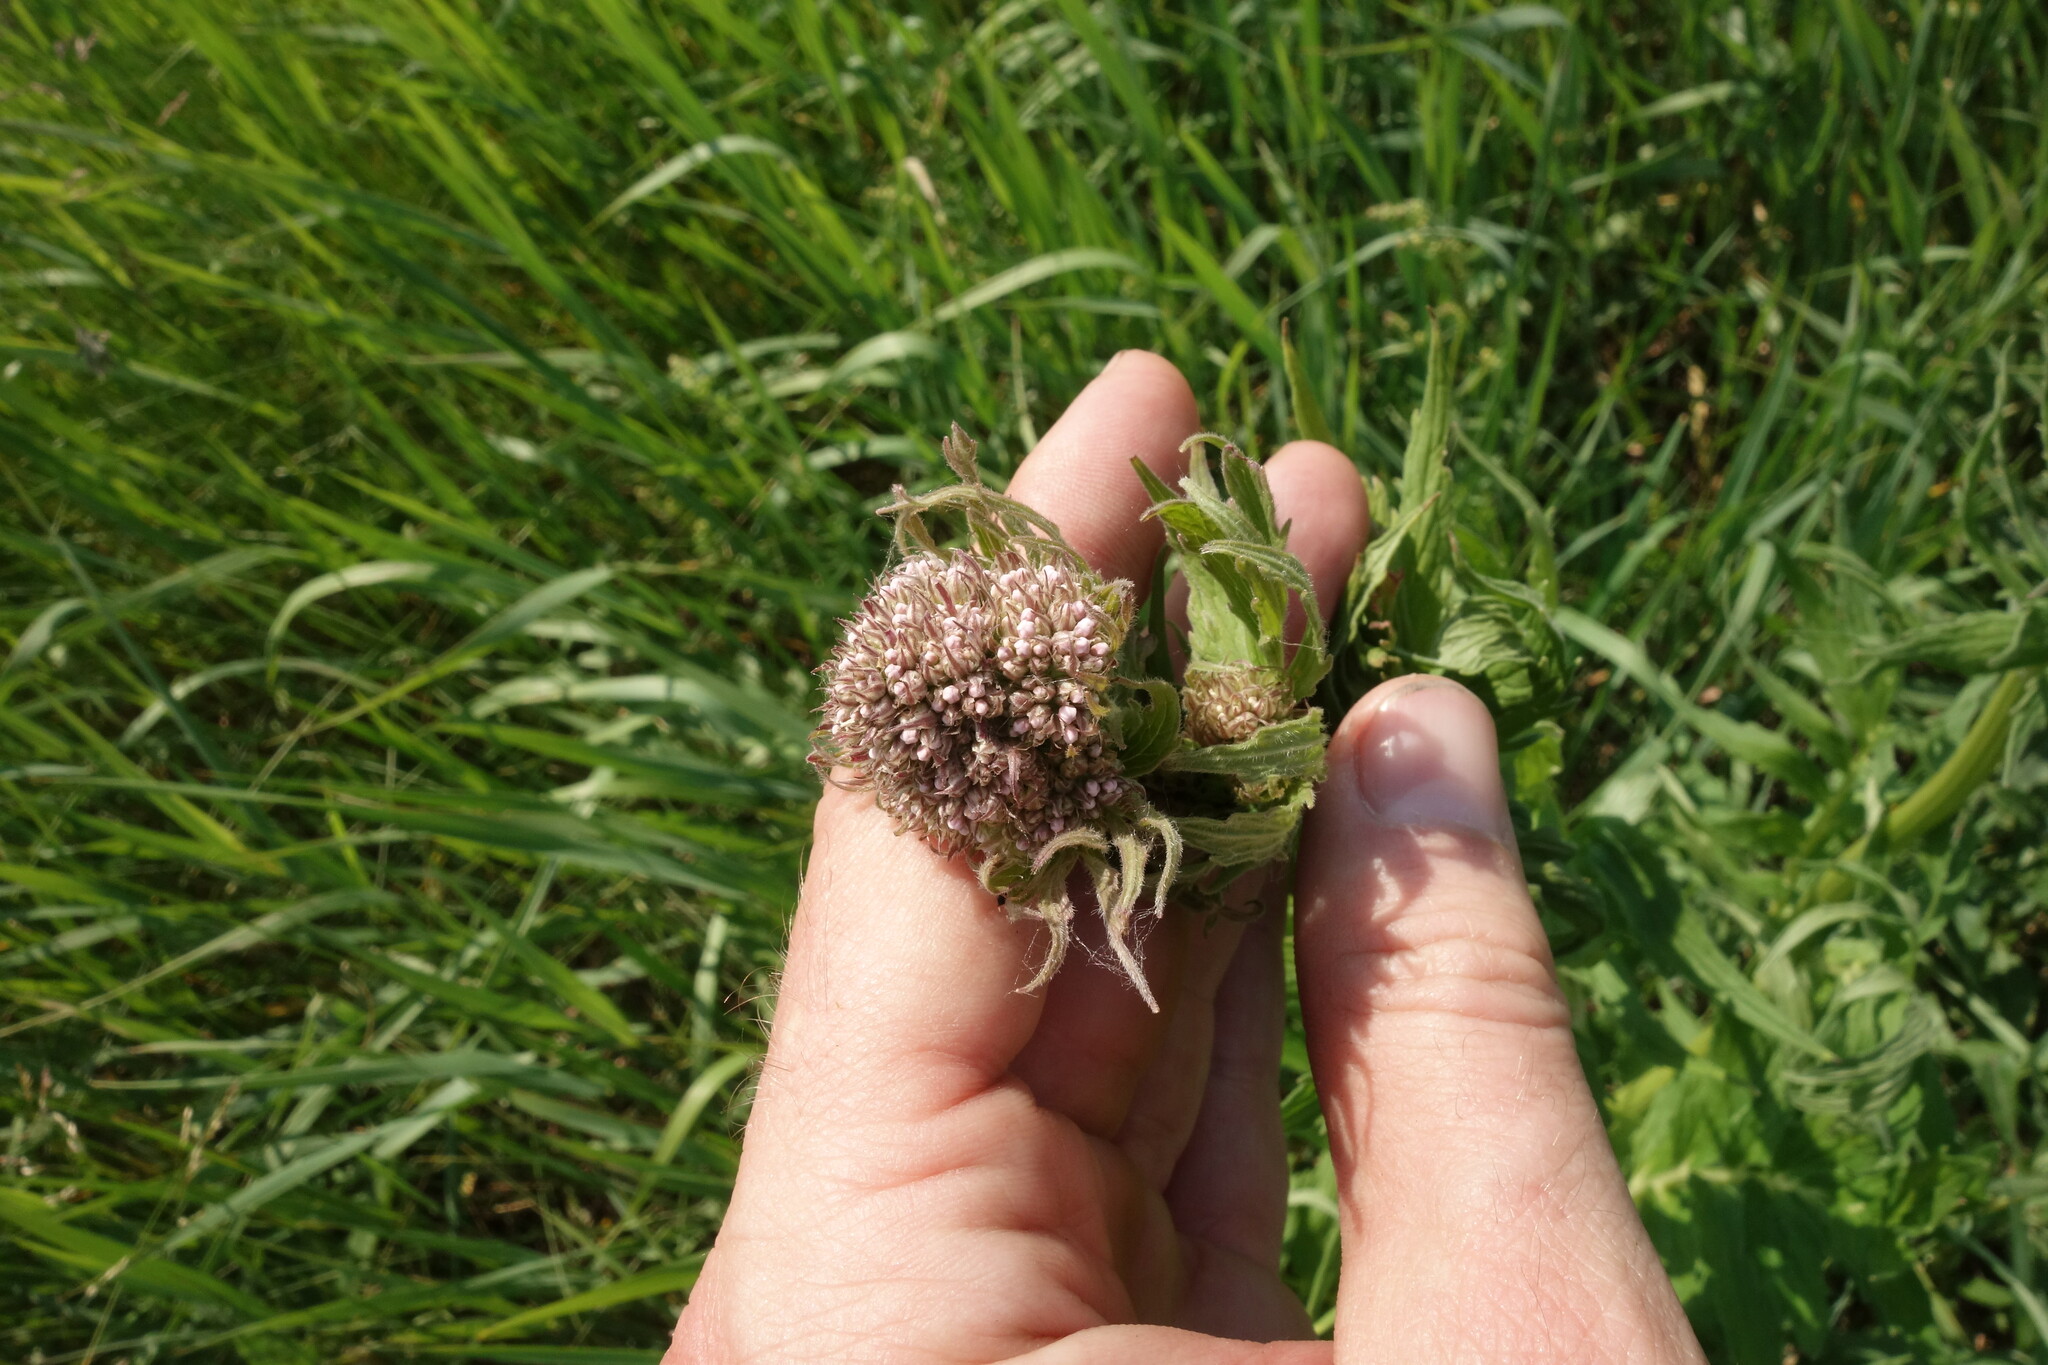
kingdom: Plantae
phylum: Tracheophyta
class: Magnoliopsida
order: Dipsacales
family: Caprifoliaceae
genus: Valeriana
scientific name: Valeriana officinalis
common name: Common valerian
